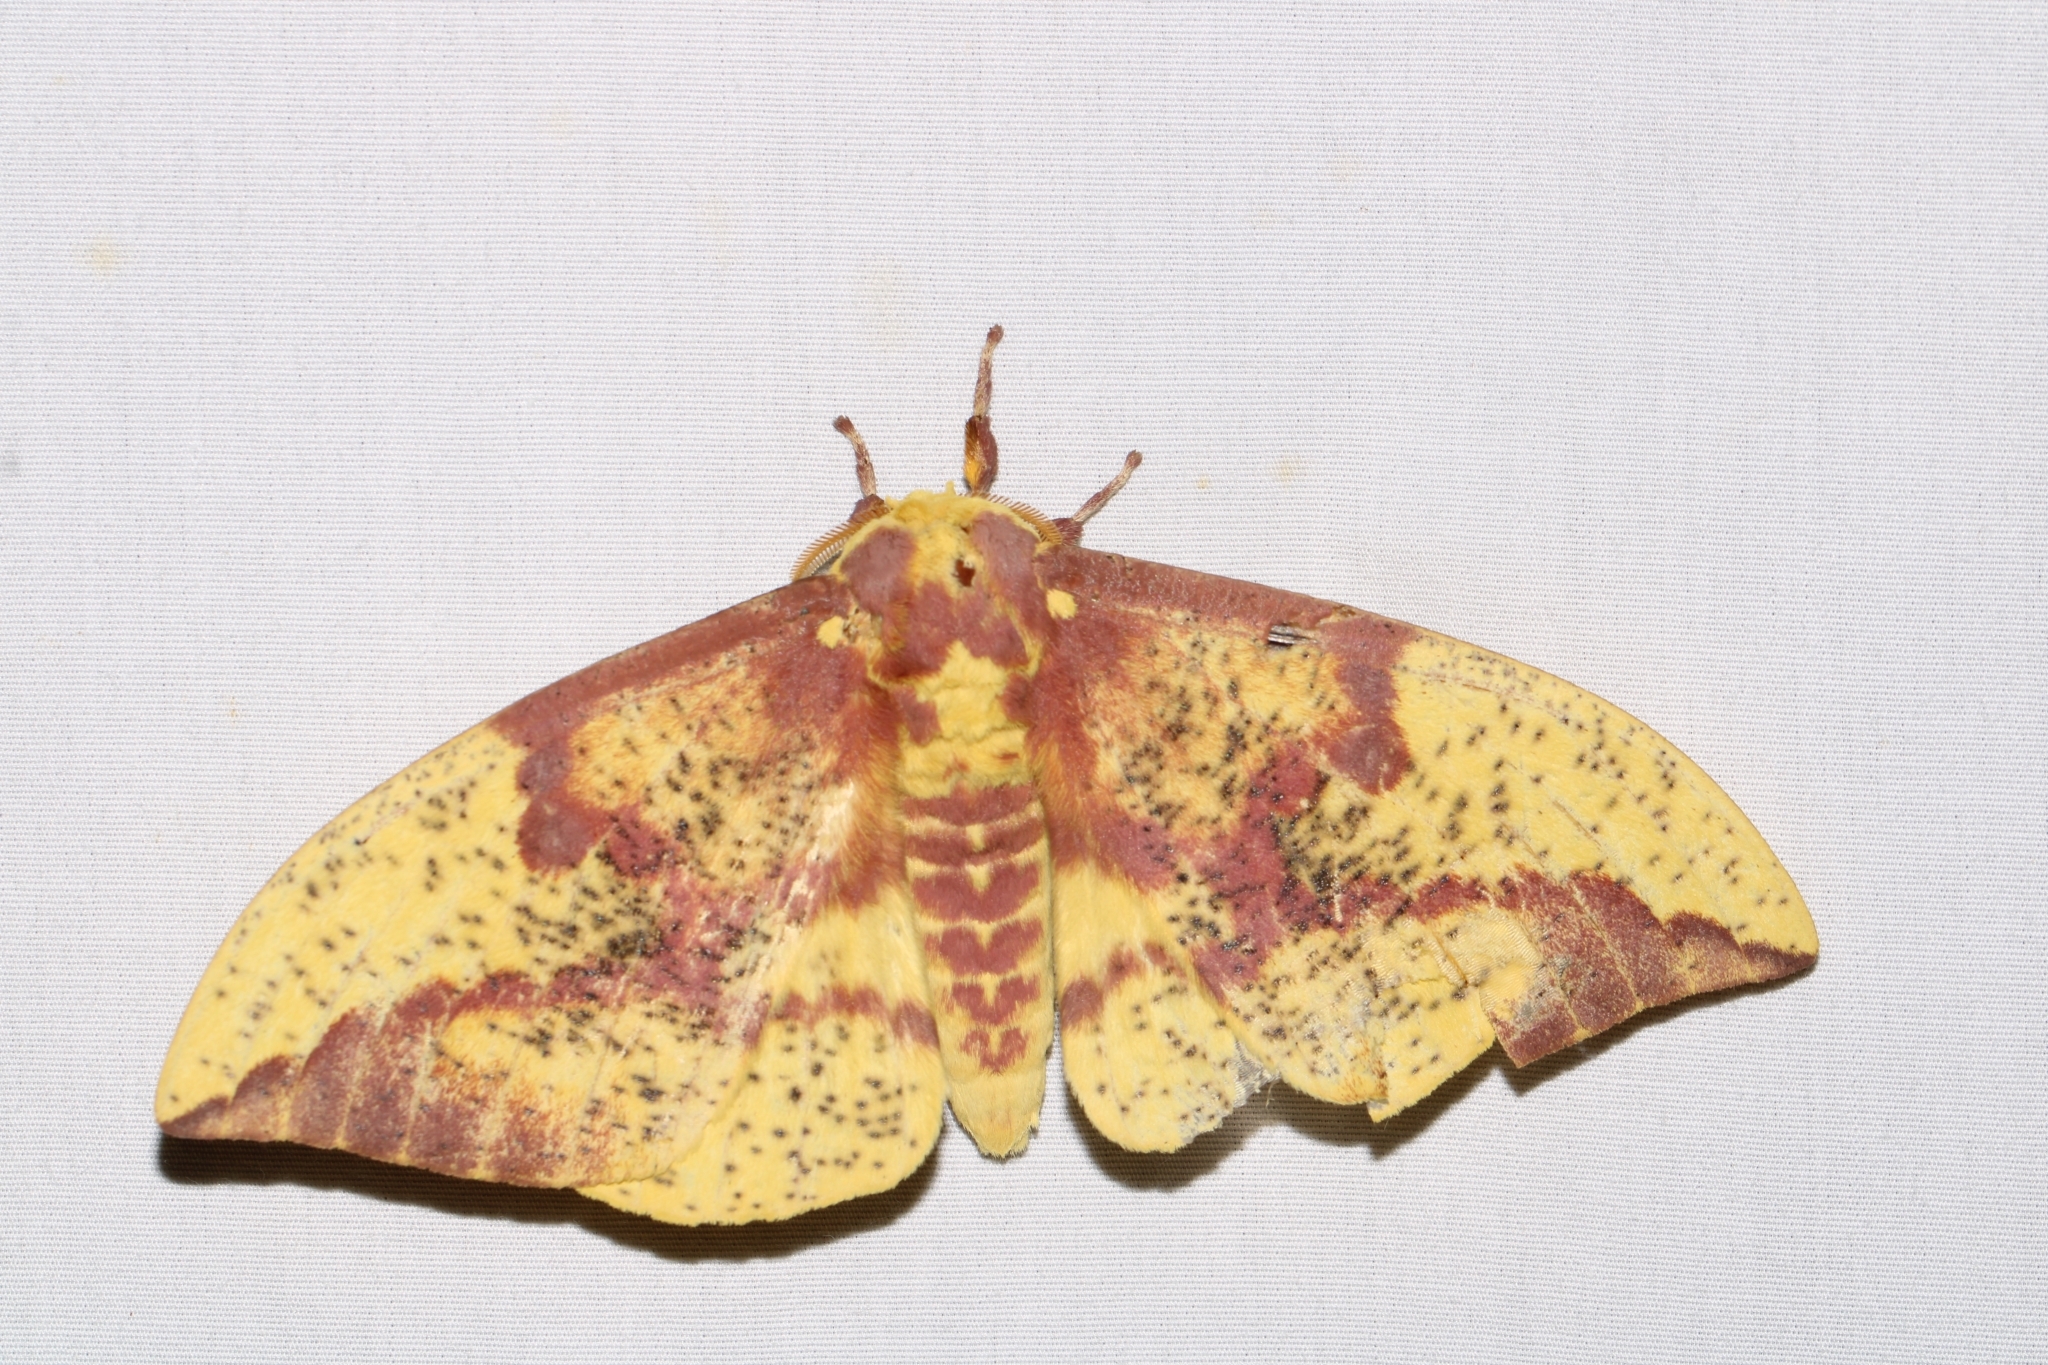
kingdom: Animalia
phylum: Arthropoda
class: Insecta
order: Lepidoptera
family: Saturniidae
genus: Eacles
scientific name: Eacles imperialis
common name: Imperial moth
